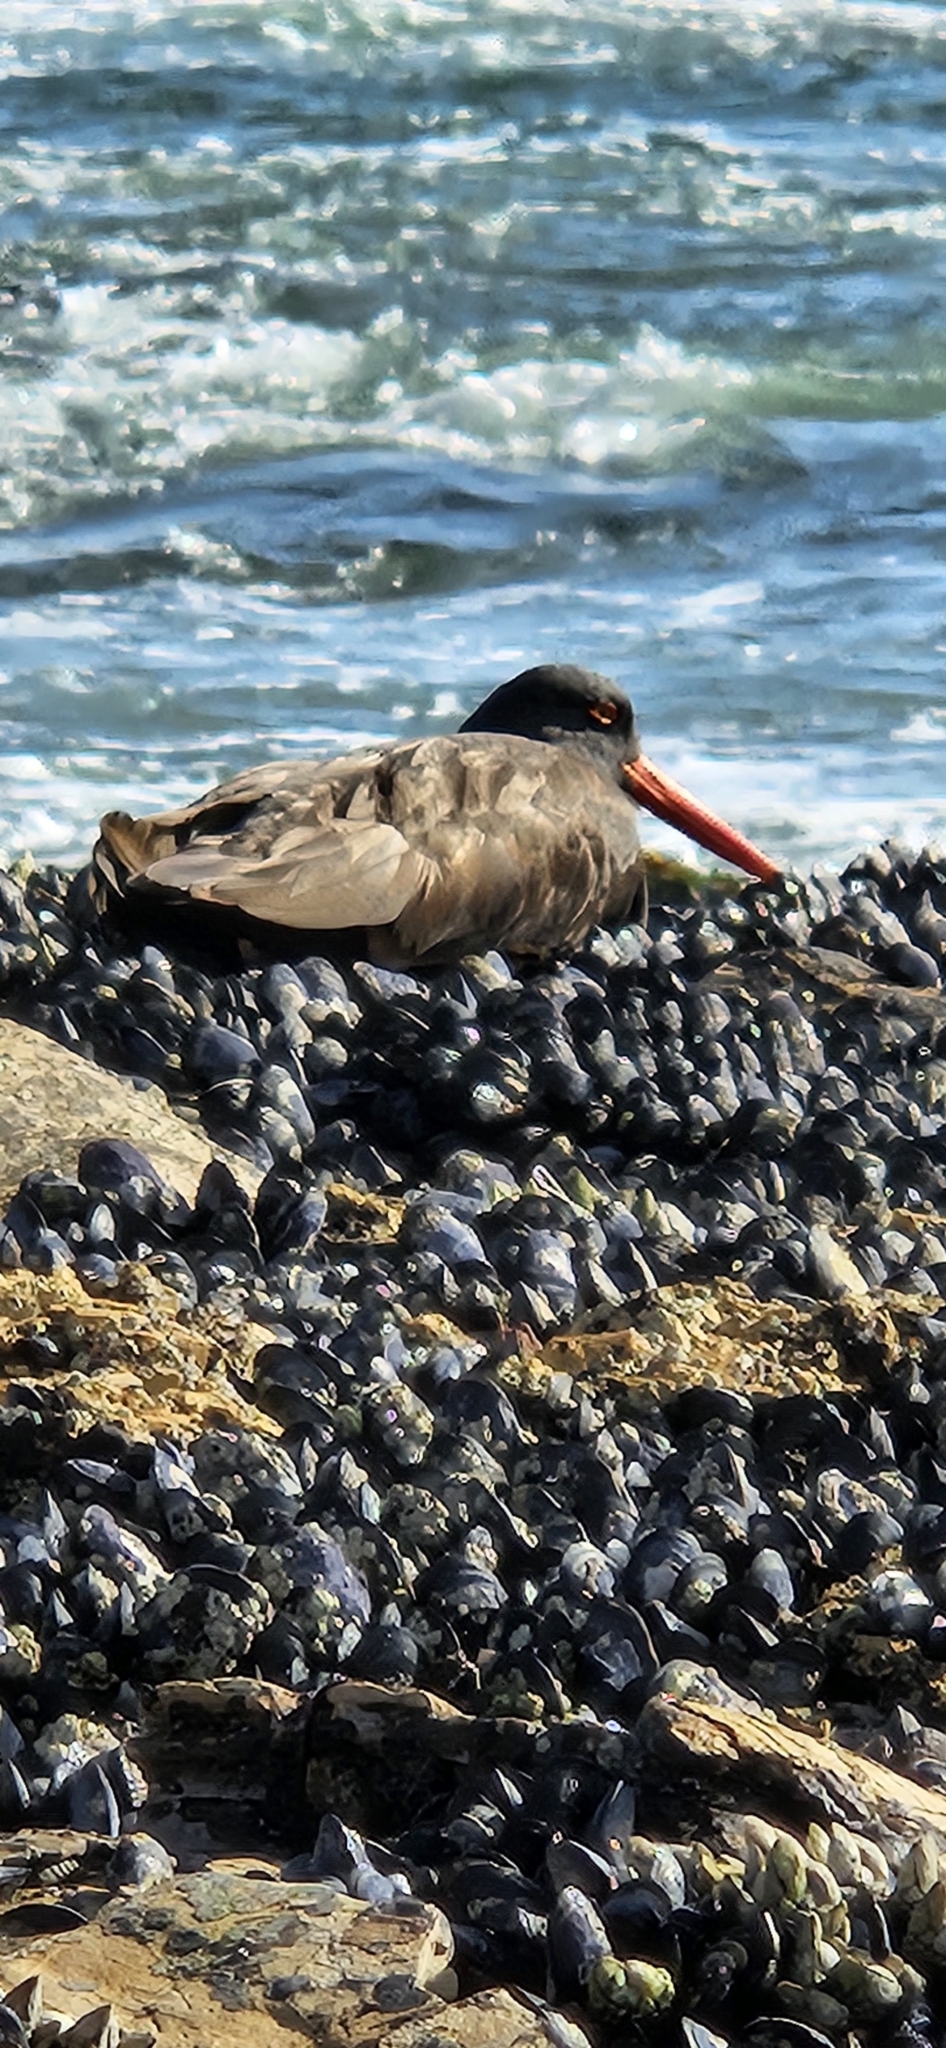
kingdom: Animalia
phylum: Chordata
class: Aves
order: Charadriiformes
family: Haematopodidae
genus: Haematopus
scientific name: Haematopus bachmani
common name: Black oystercatcher
